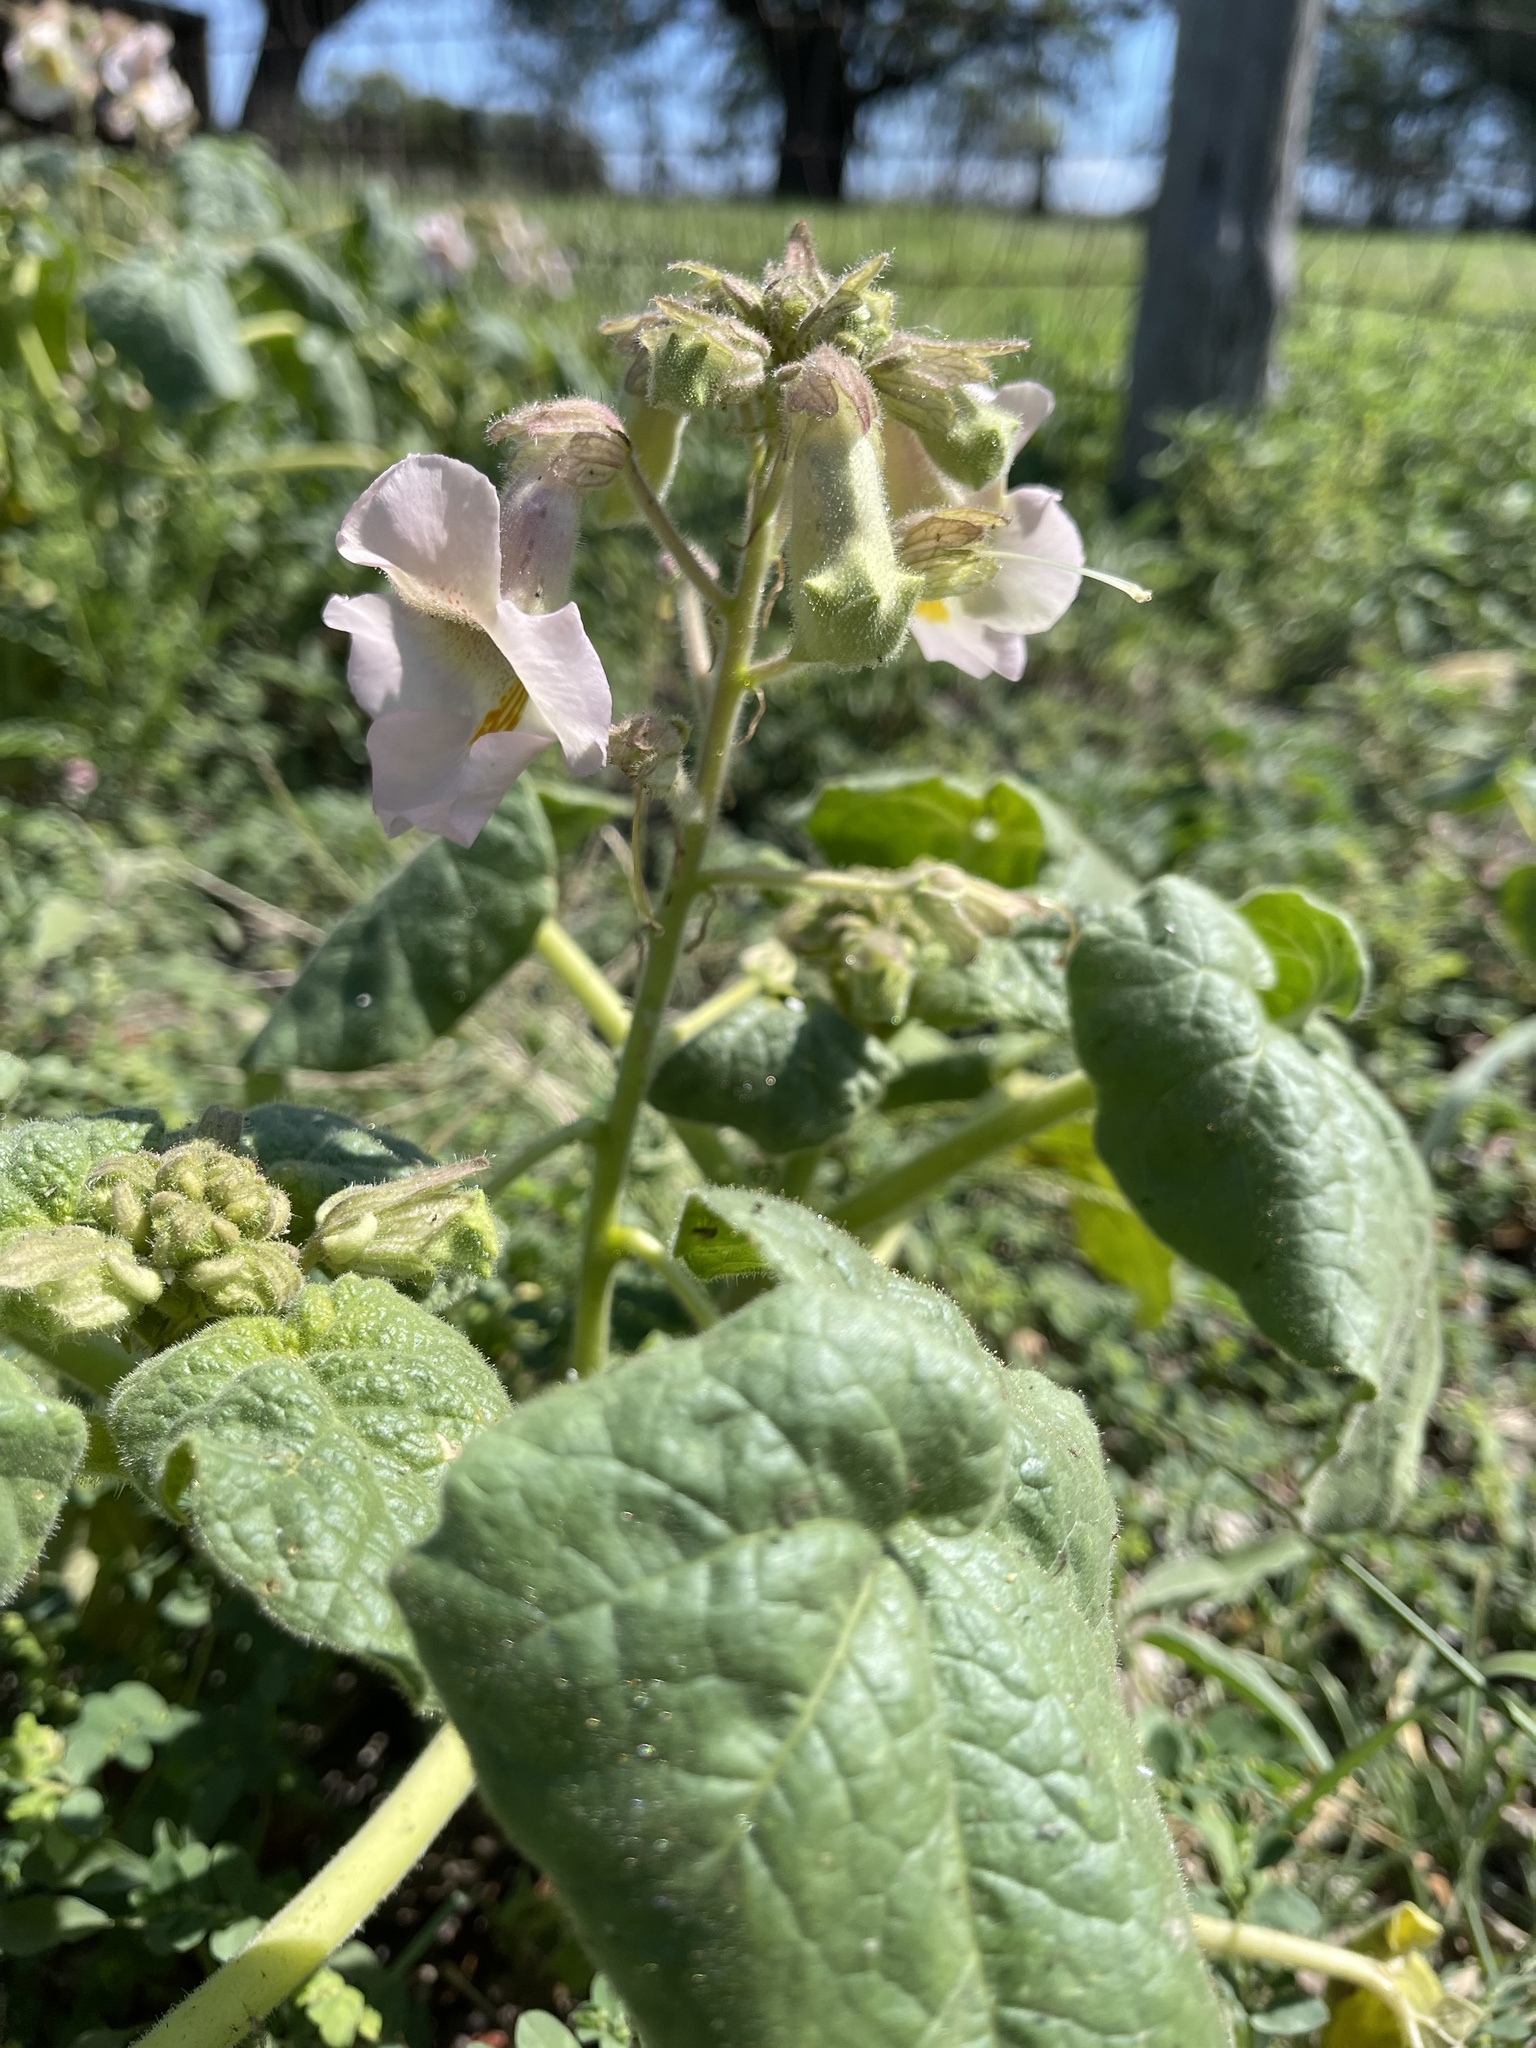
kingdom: Plantae
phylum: Tracheophyta
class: Magnoliopsida
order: Lamiales
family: Martyniaceae
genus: Proboscidea
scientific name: Proboscidea louisianica
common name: Elephant tusks
